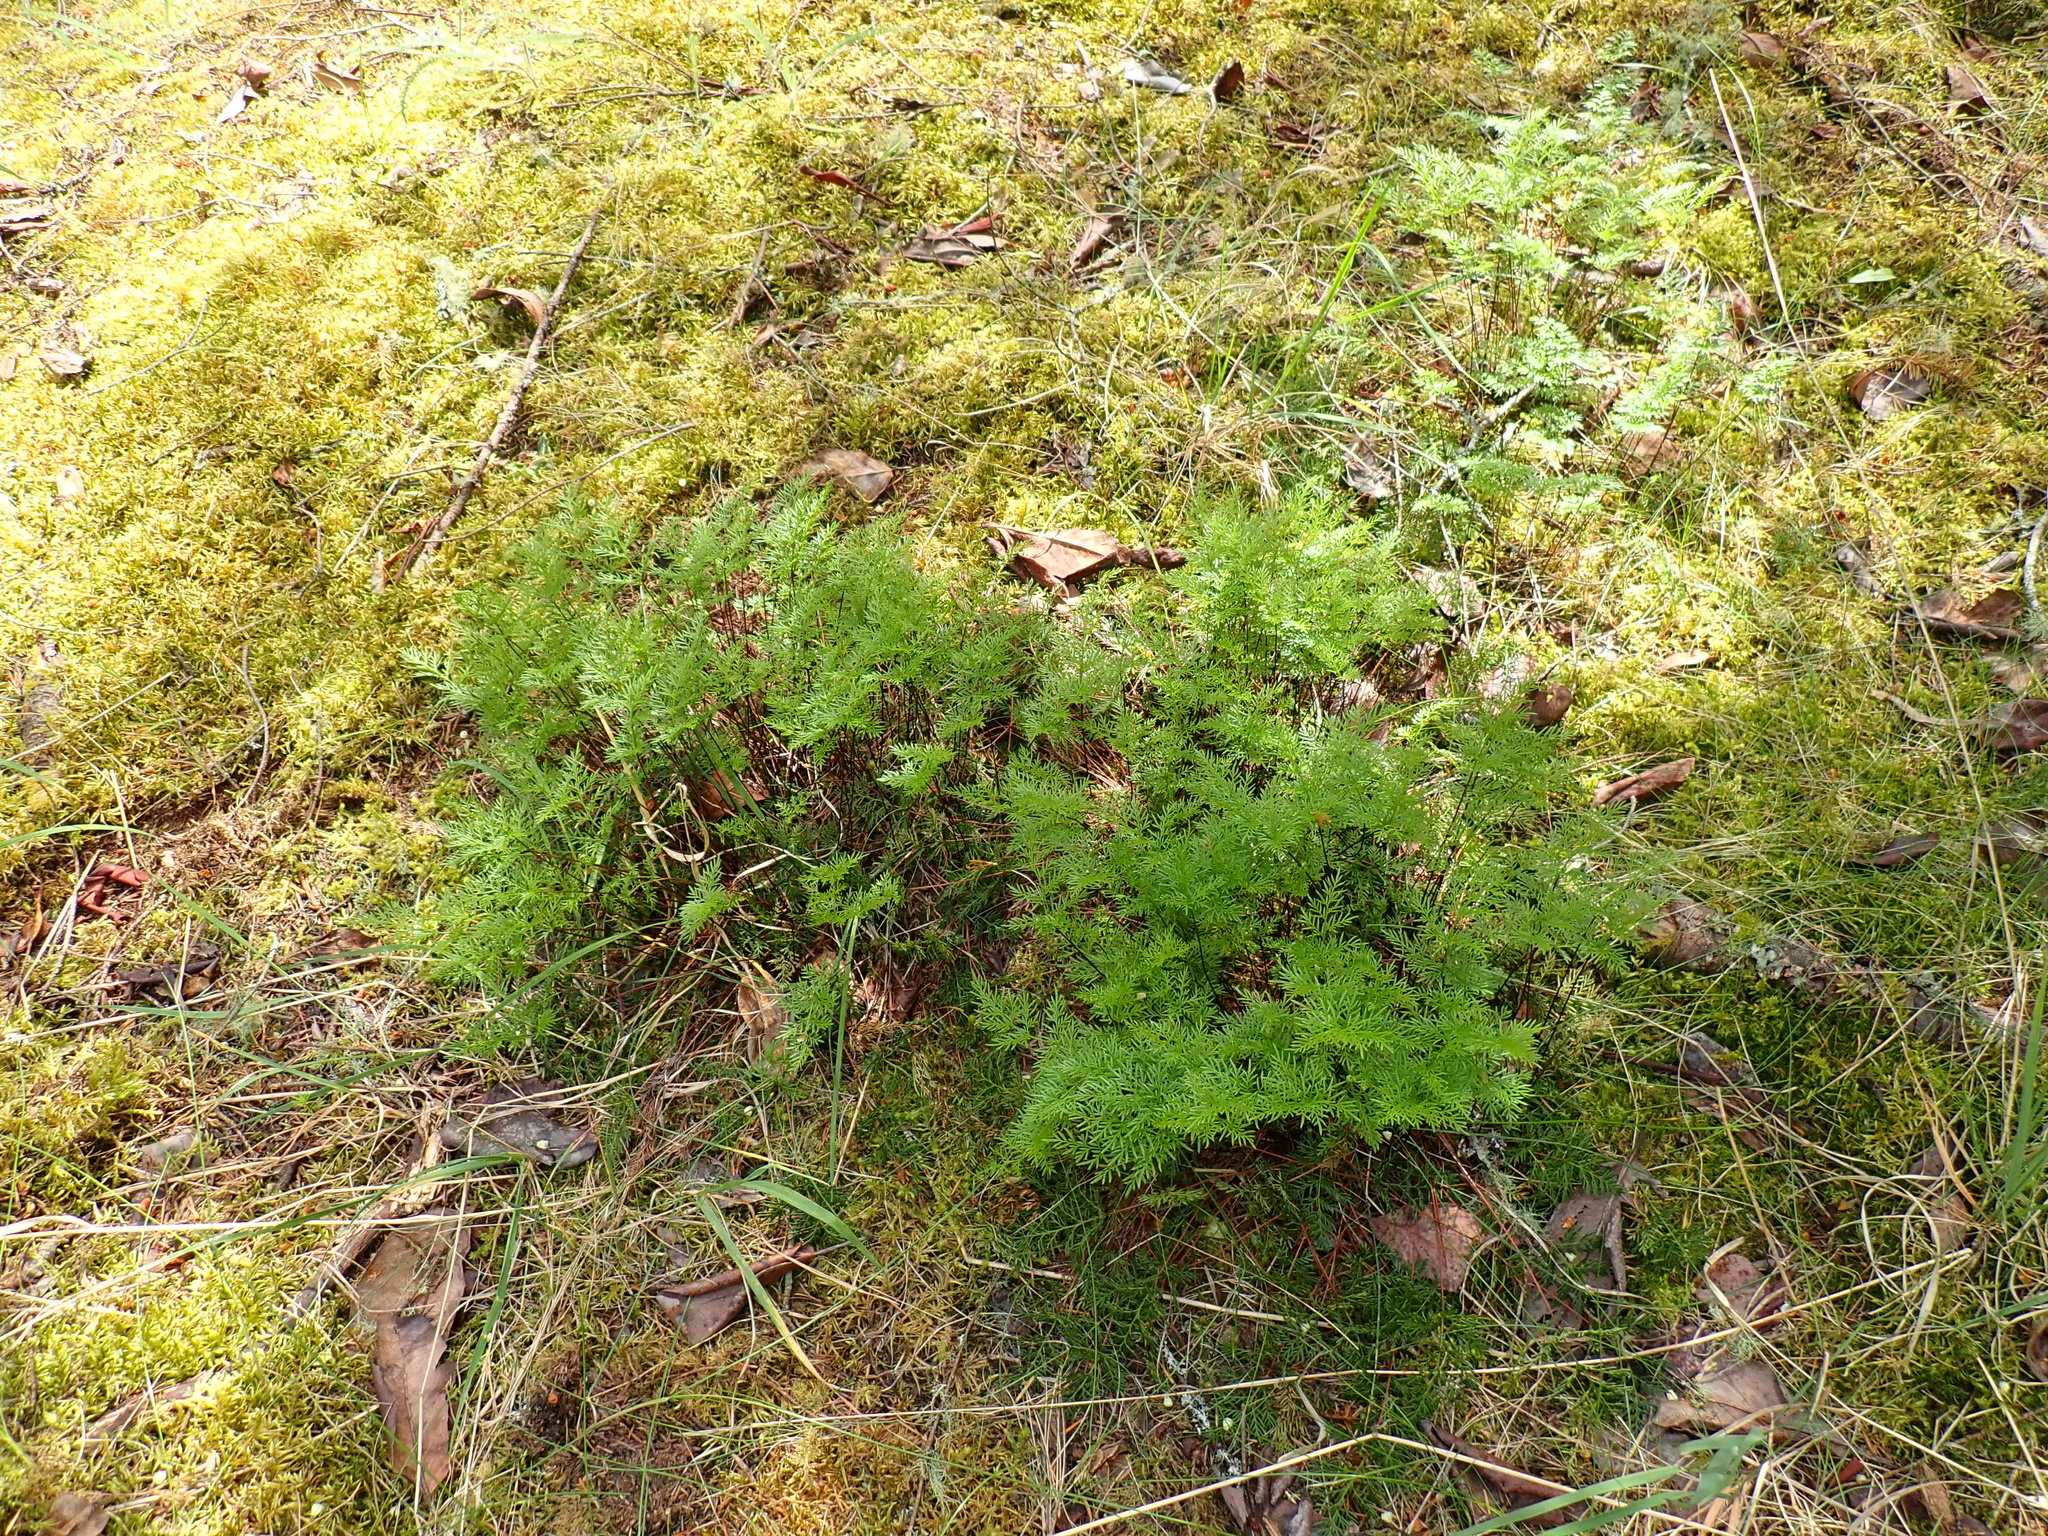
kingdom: Plantae
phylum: Tracheophyta
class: Polypodiopsida
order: Polypodiales
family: Pteridaceae
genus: Aspidotis
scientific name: Aspidotis densa
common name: Indian's dream
